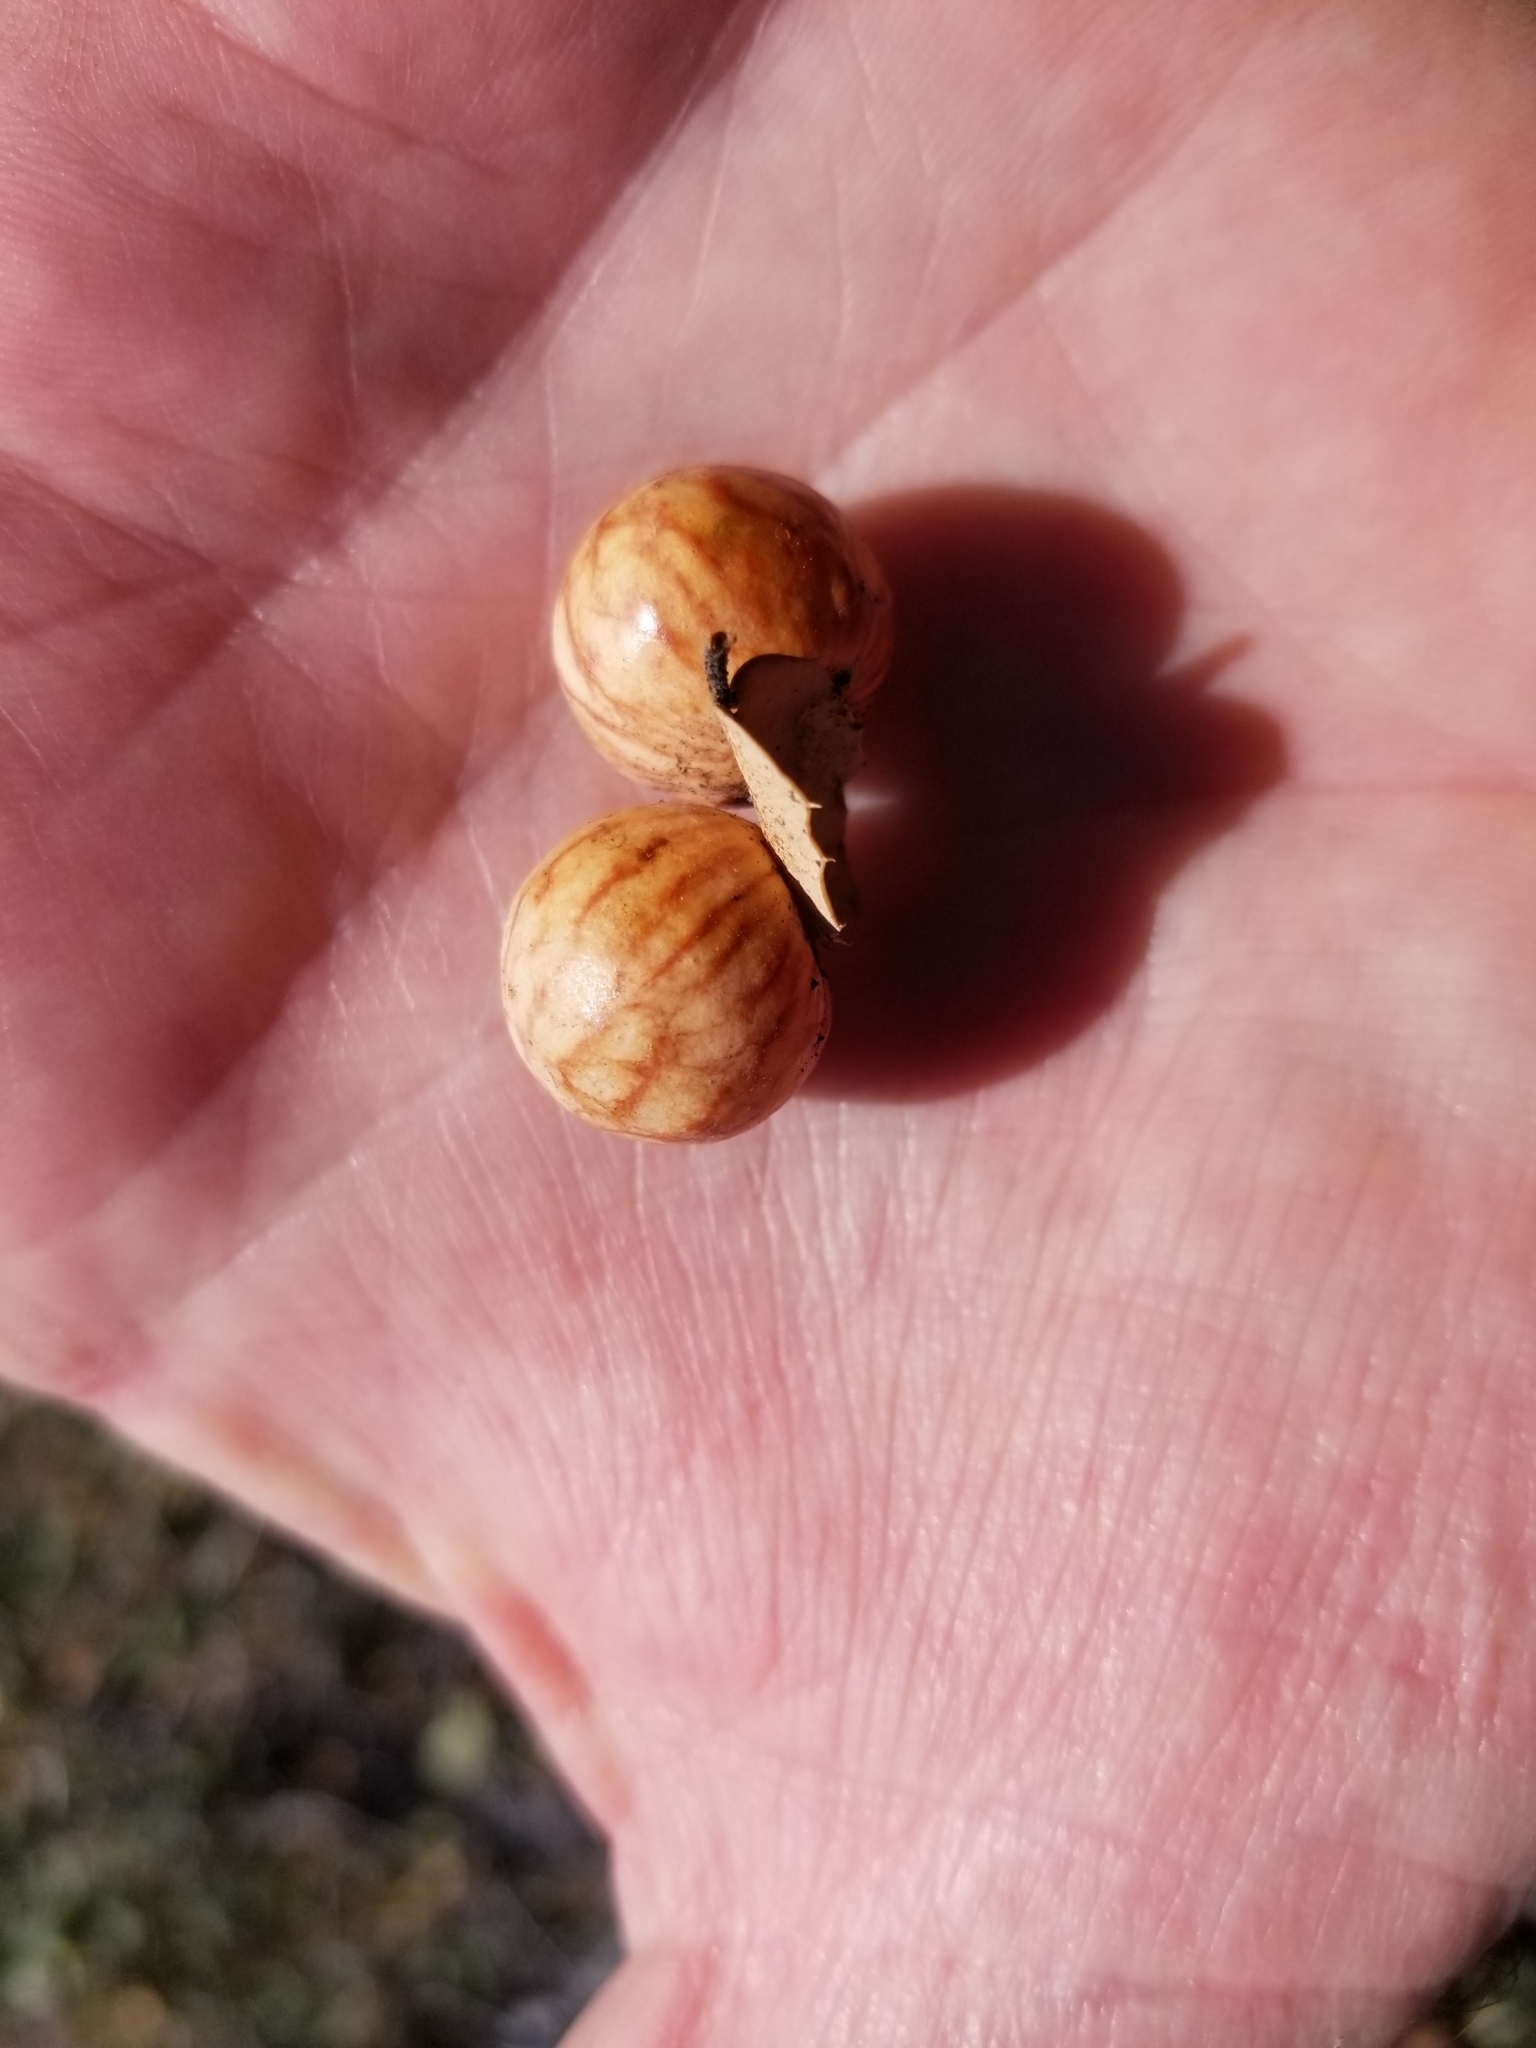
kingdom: Animalia
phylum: Arthropoda
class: Insecta
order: Hymenoptera
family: Cynipidae
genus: Atrusca
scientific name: Atrusca
